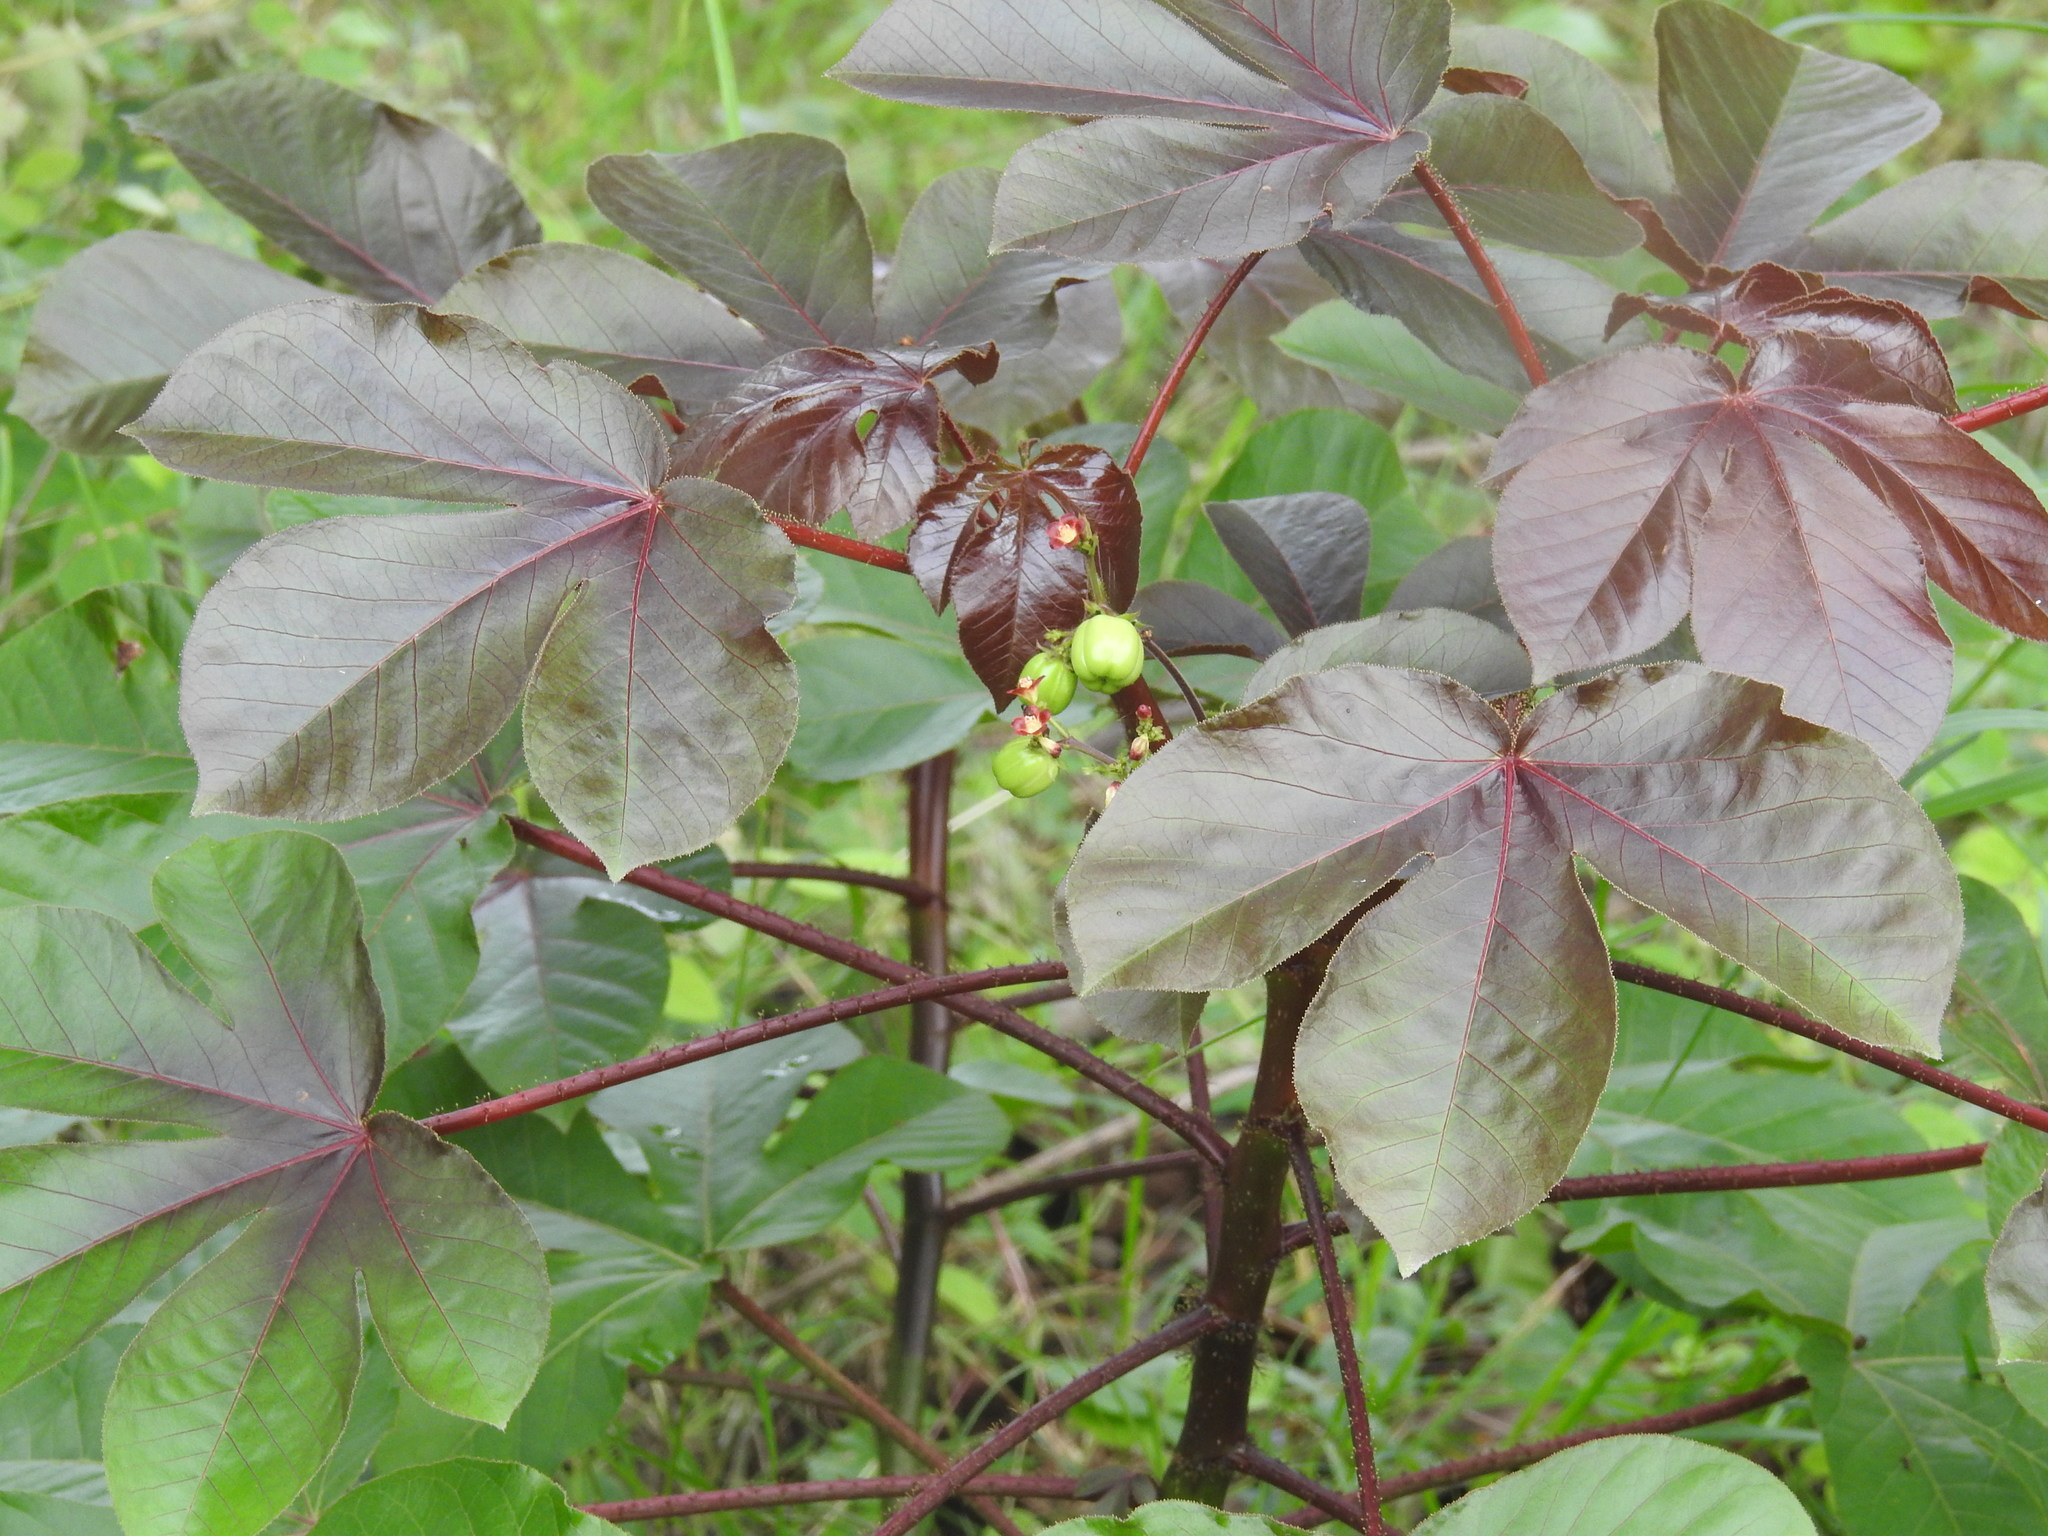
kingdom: Plantae
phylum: Tracheophyta
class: Magnoliopsida
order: Malpighiales
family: Euphorbiaceae
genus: Jatropha
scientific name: Jatropha gossypiifolia
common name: Bellyache bush
